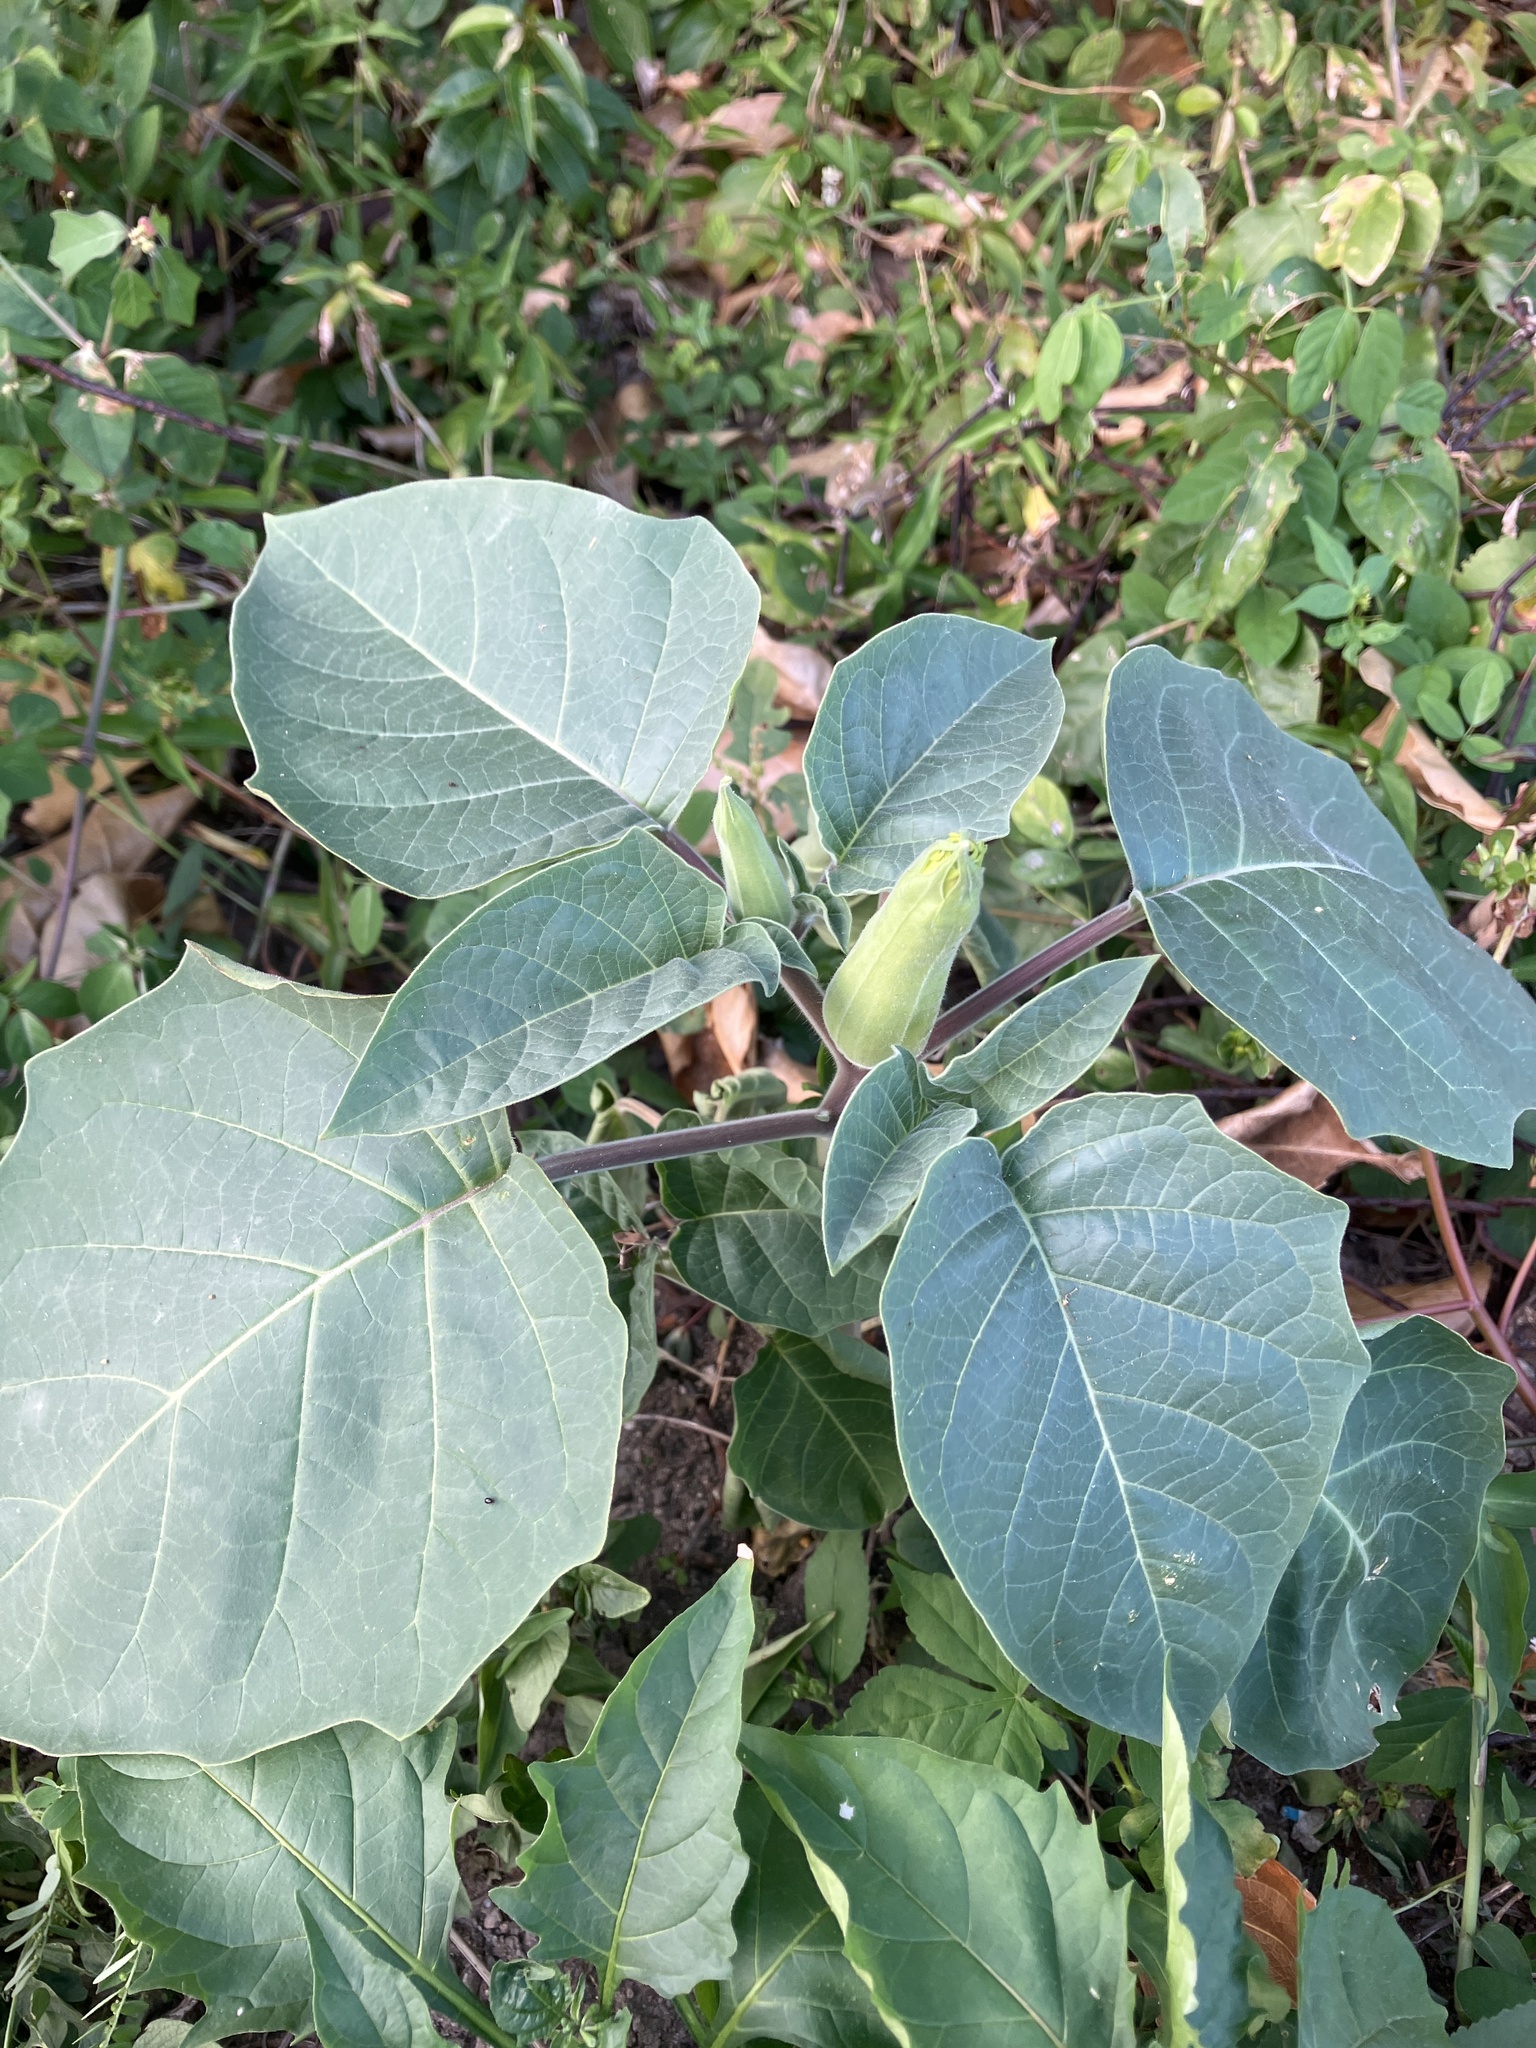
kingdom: Plantae
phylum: Tracheophyta
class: Magnoliopsida
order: Solanales
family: Solanaceae
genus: Datura
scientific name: Datura innoxia
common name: Downy thorn-apple
